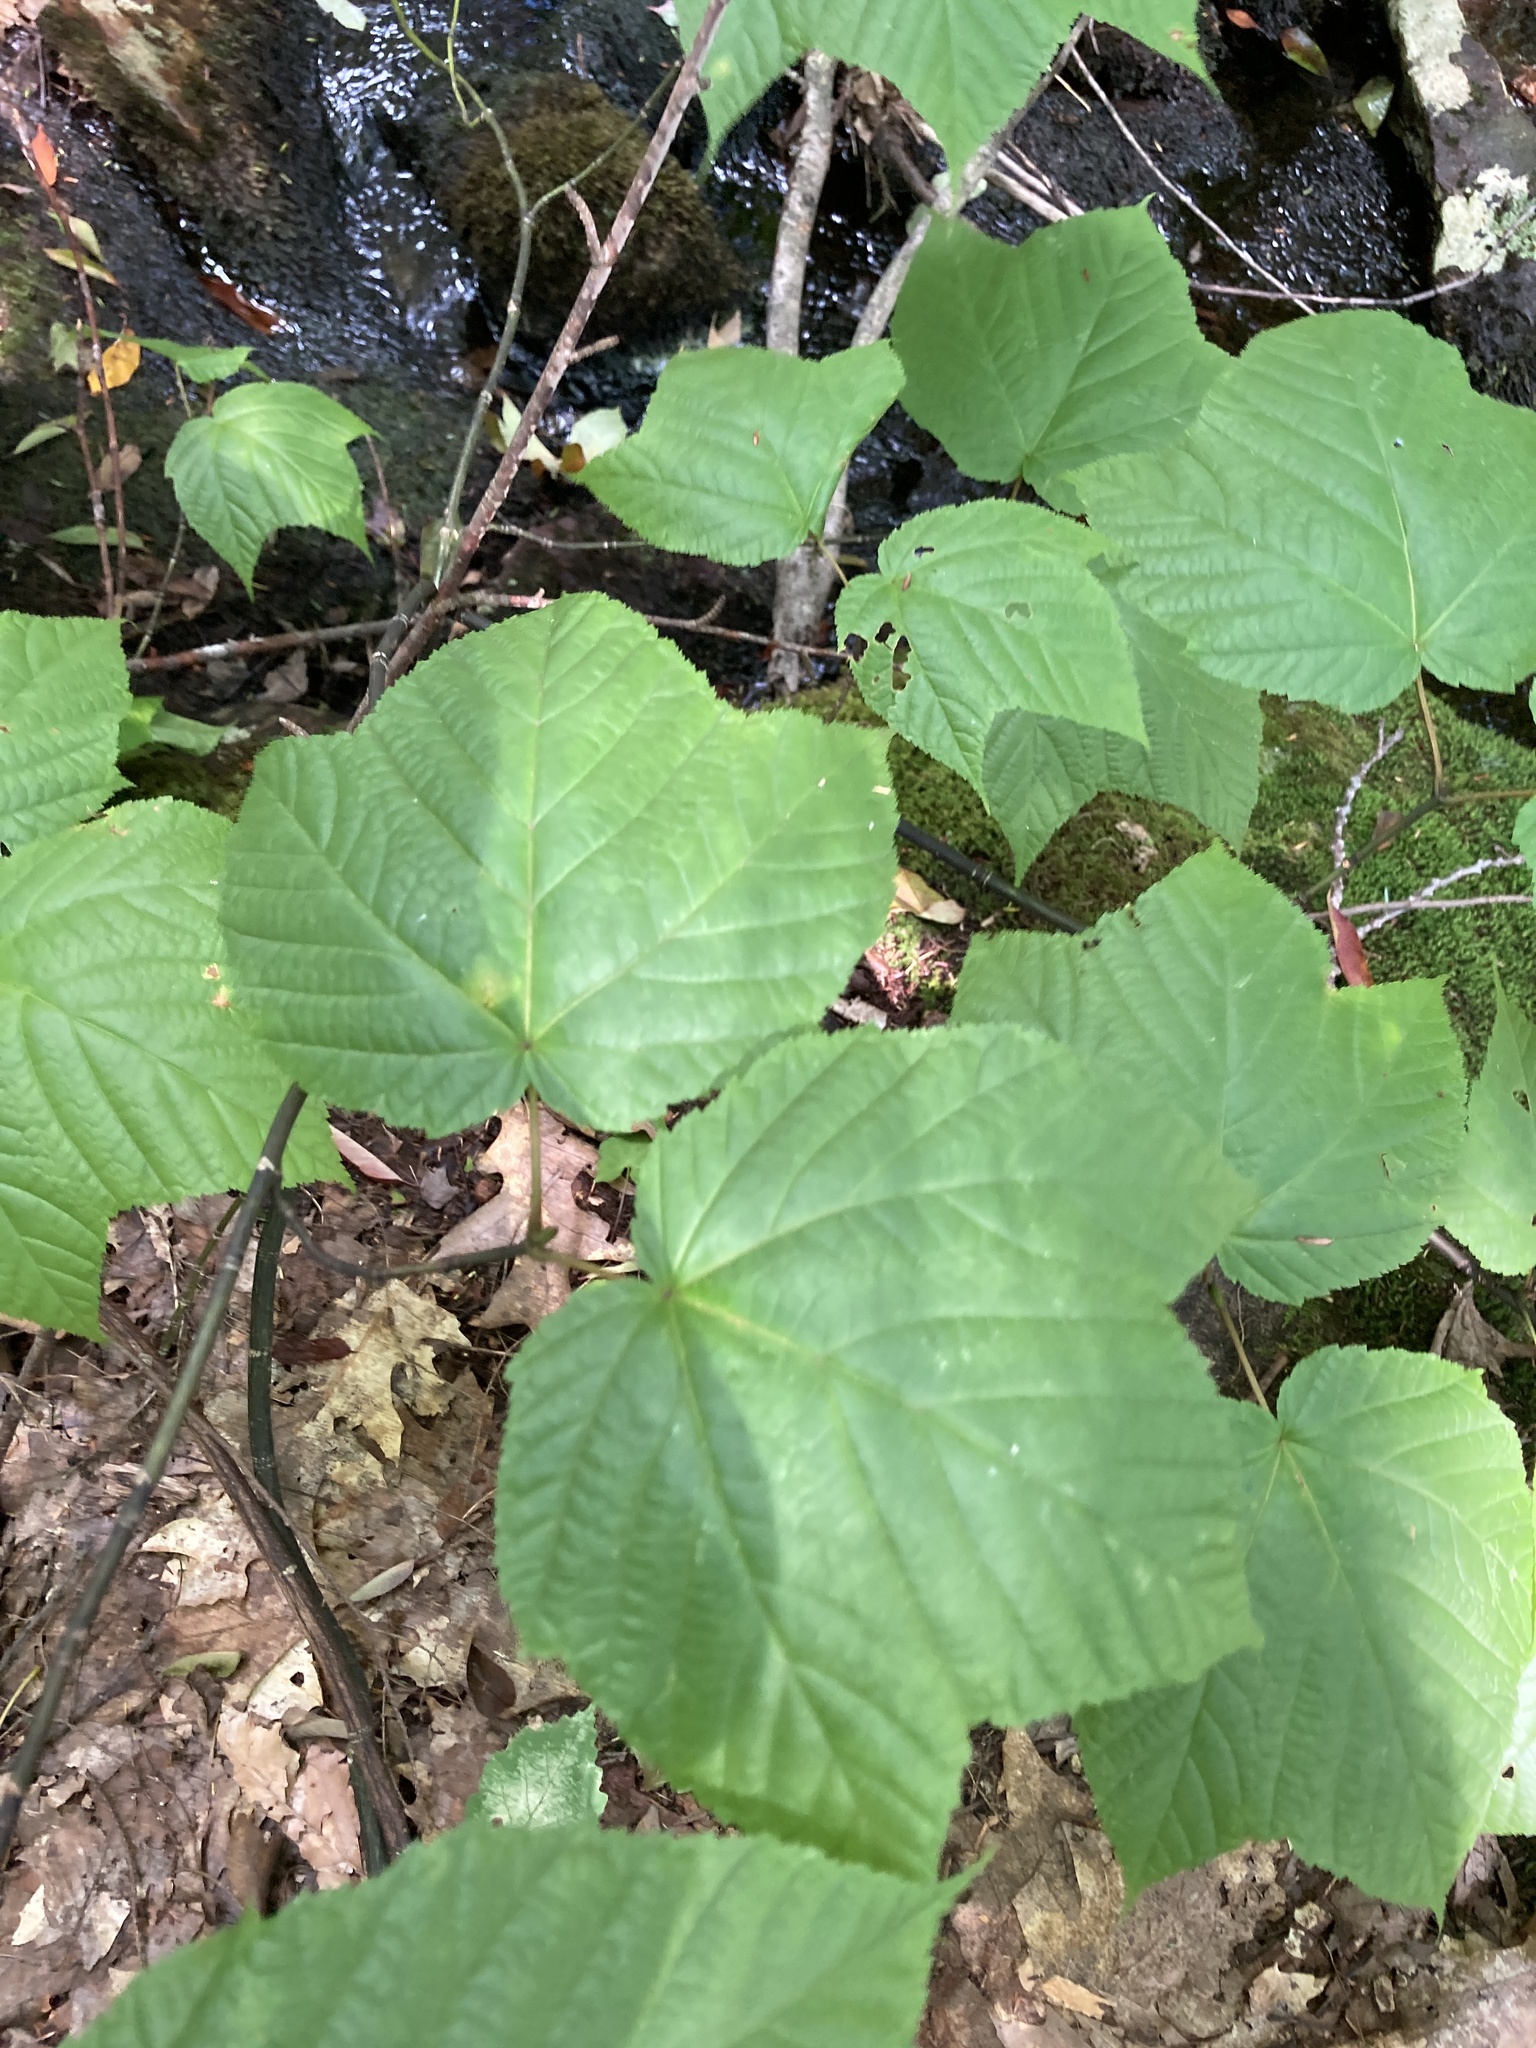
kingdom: Plantae
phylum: Tracheophyta
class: Magnoliopsida
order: Sapindales
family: Sapindaceae
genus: Acer
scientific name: Acer pensylvanicum
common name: Moosewood
